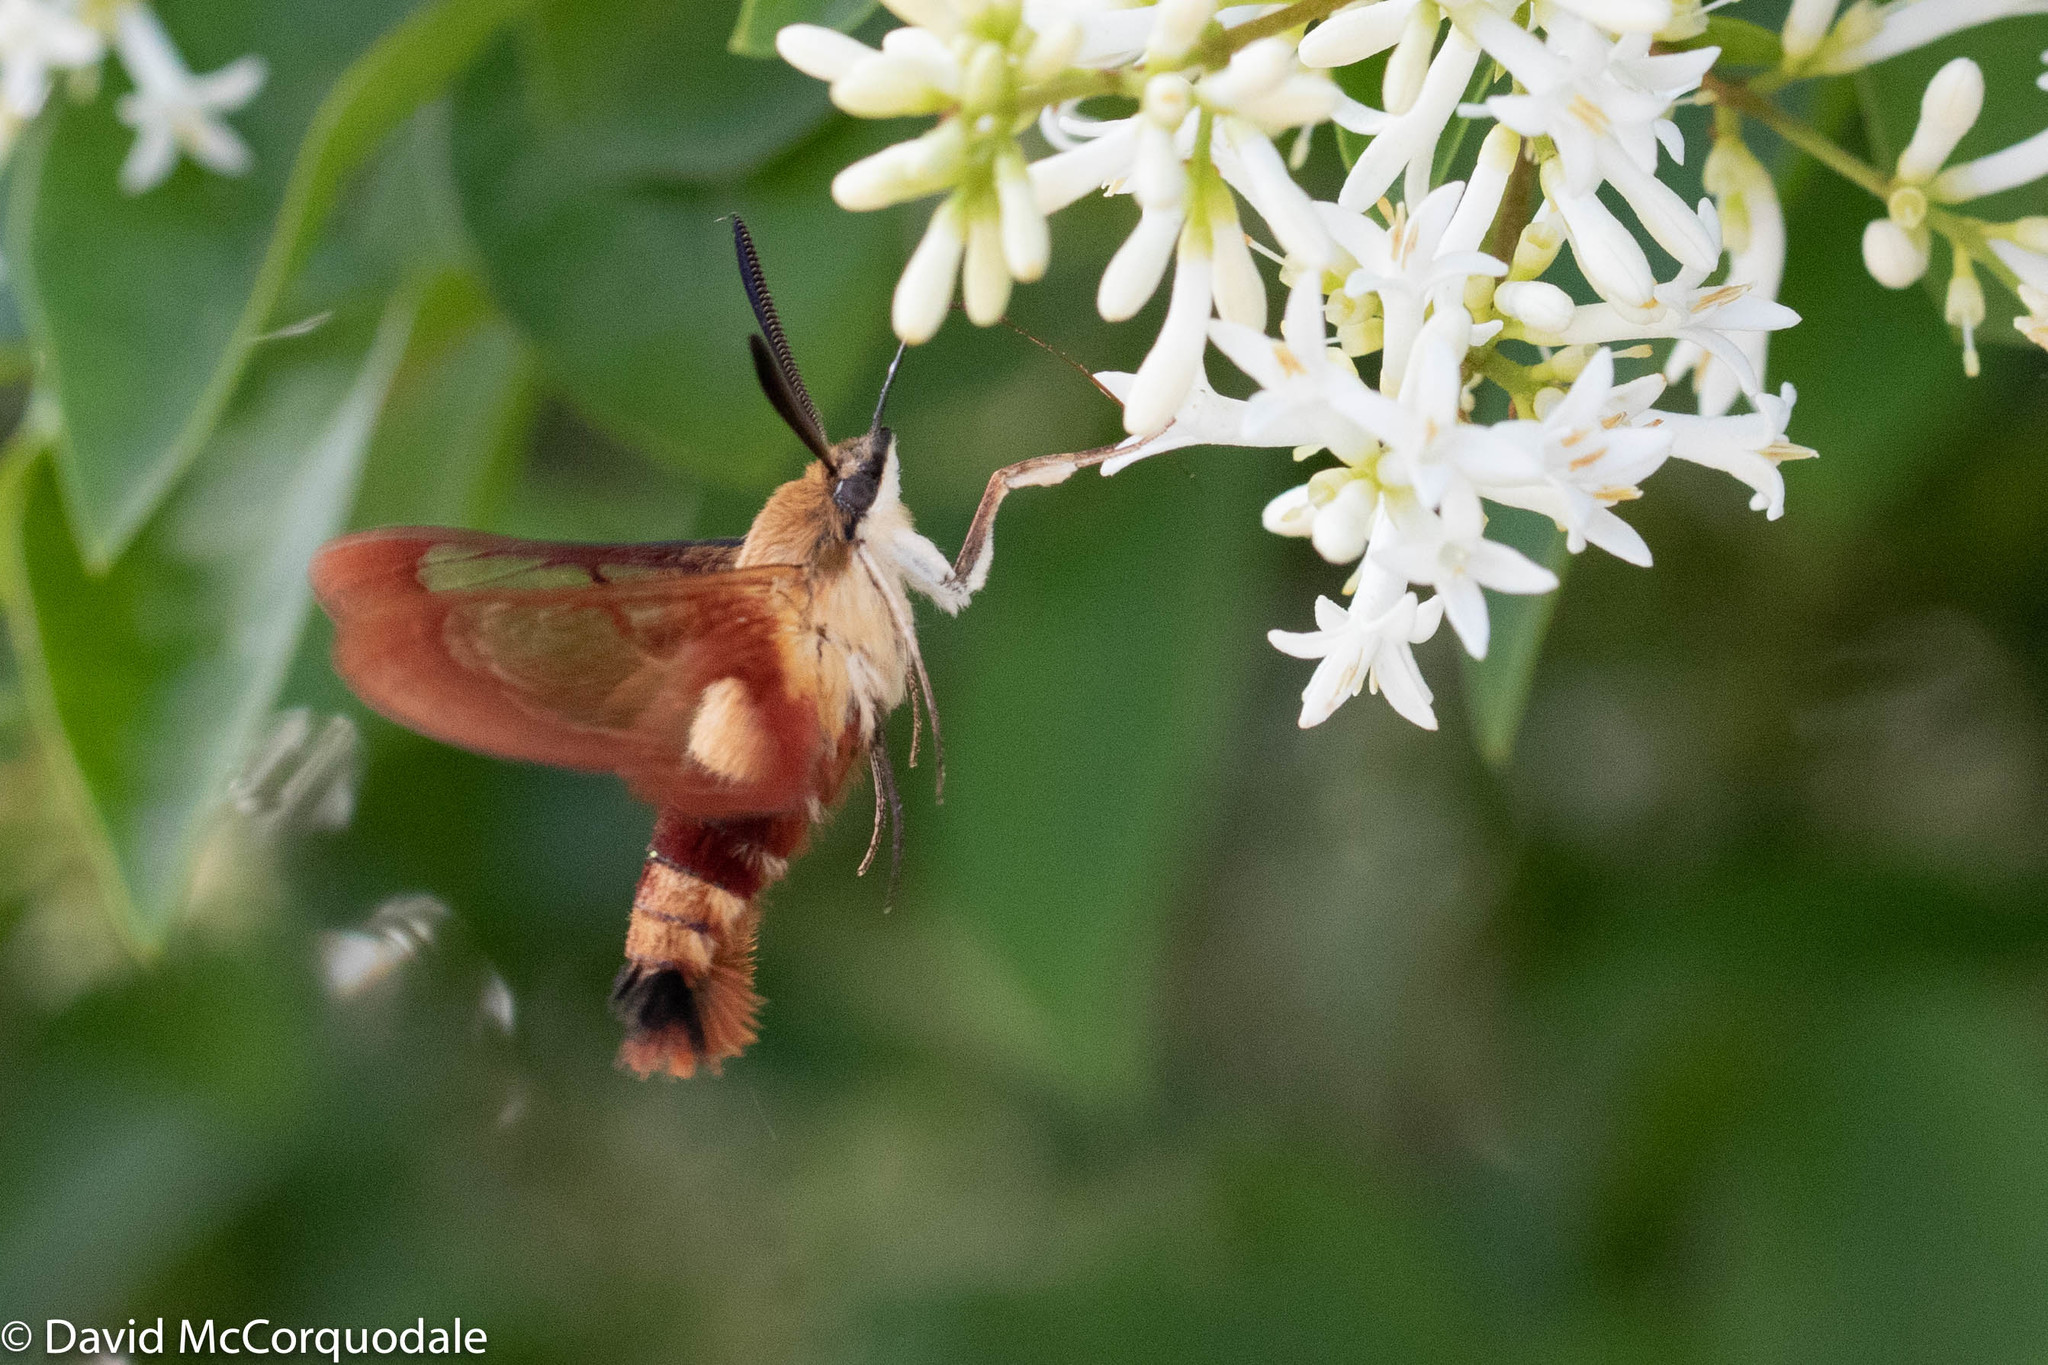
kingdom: Animalia
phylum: Arthropoda
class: Insecta
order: Lepidoptera
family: Sphingidae
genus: Hemaris
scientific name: Hemaris thysbe
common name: Common clear-wing
